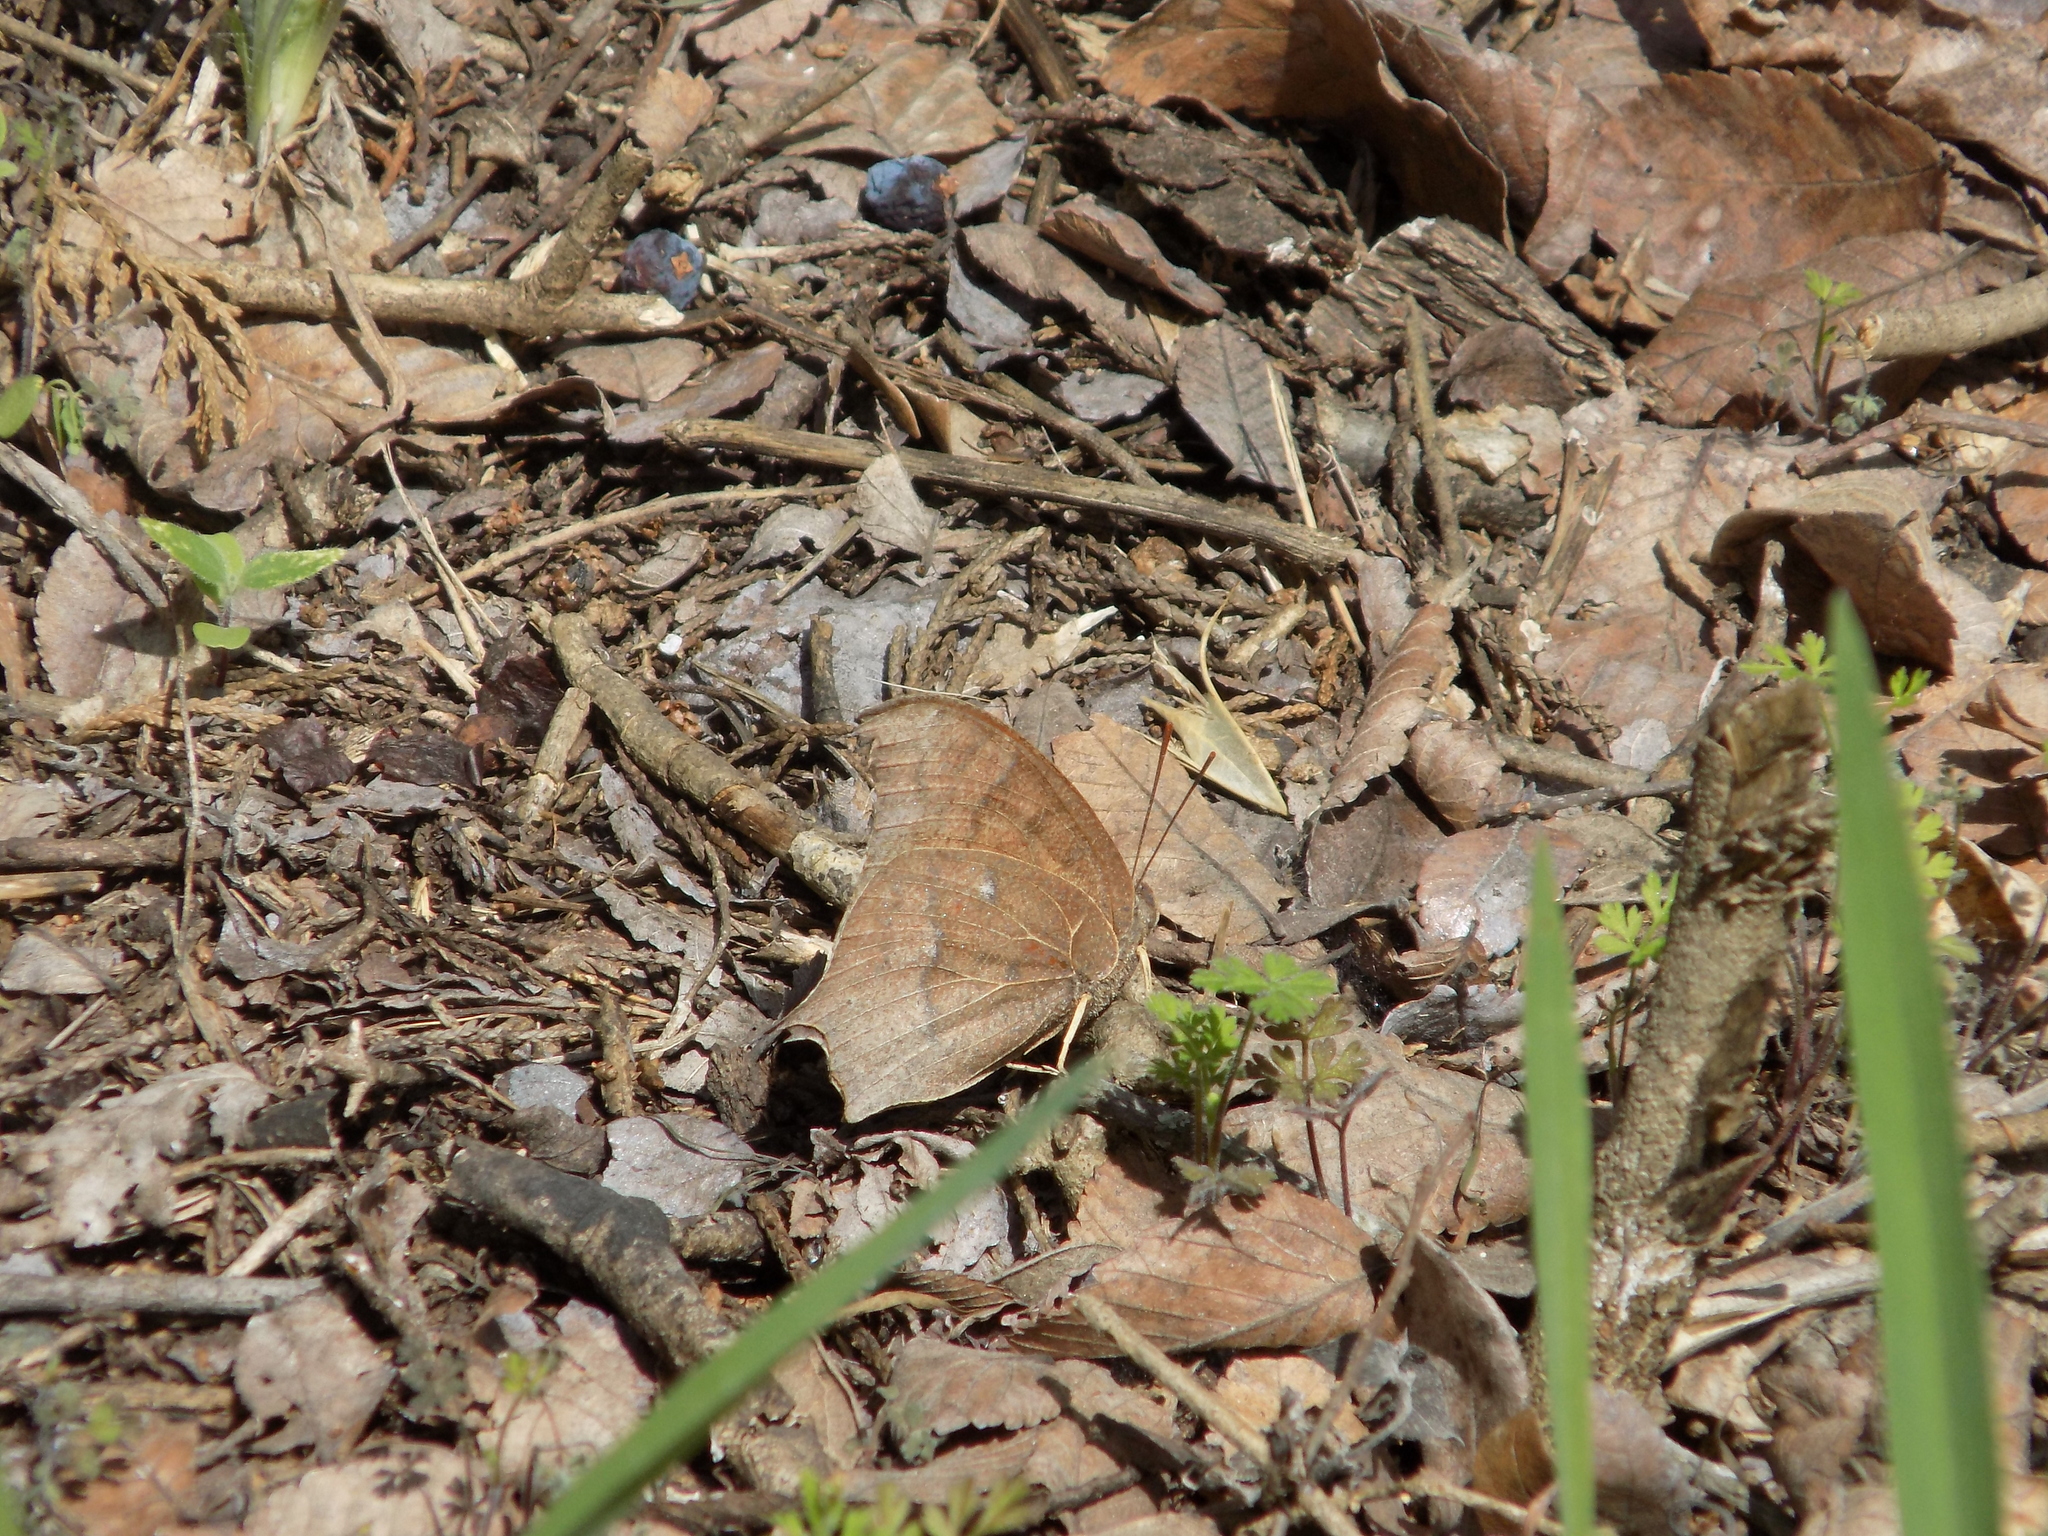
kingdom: Animalia
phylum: Arthropoda
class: Insecta
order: Lepidoptera
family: Nymphalidae
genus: Anaea
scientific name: Anaea andria
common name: Goatweed leafwing
